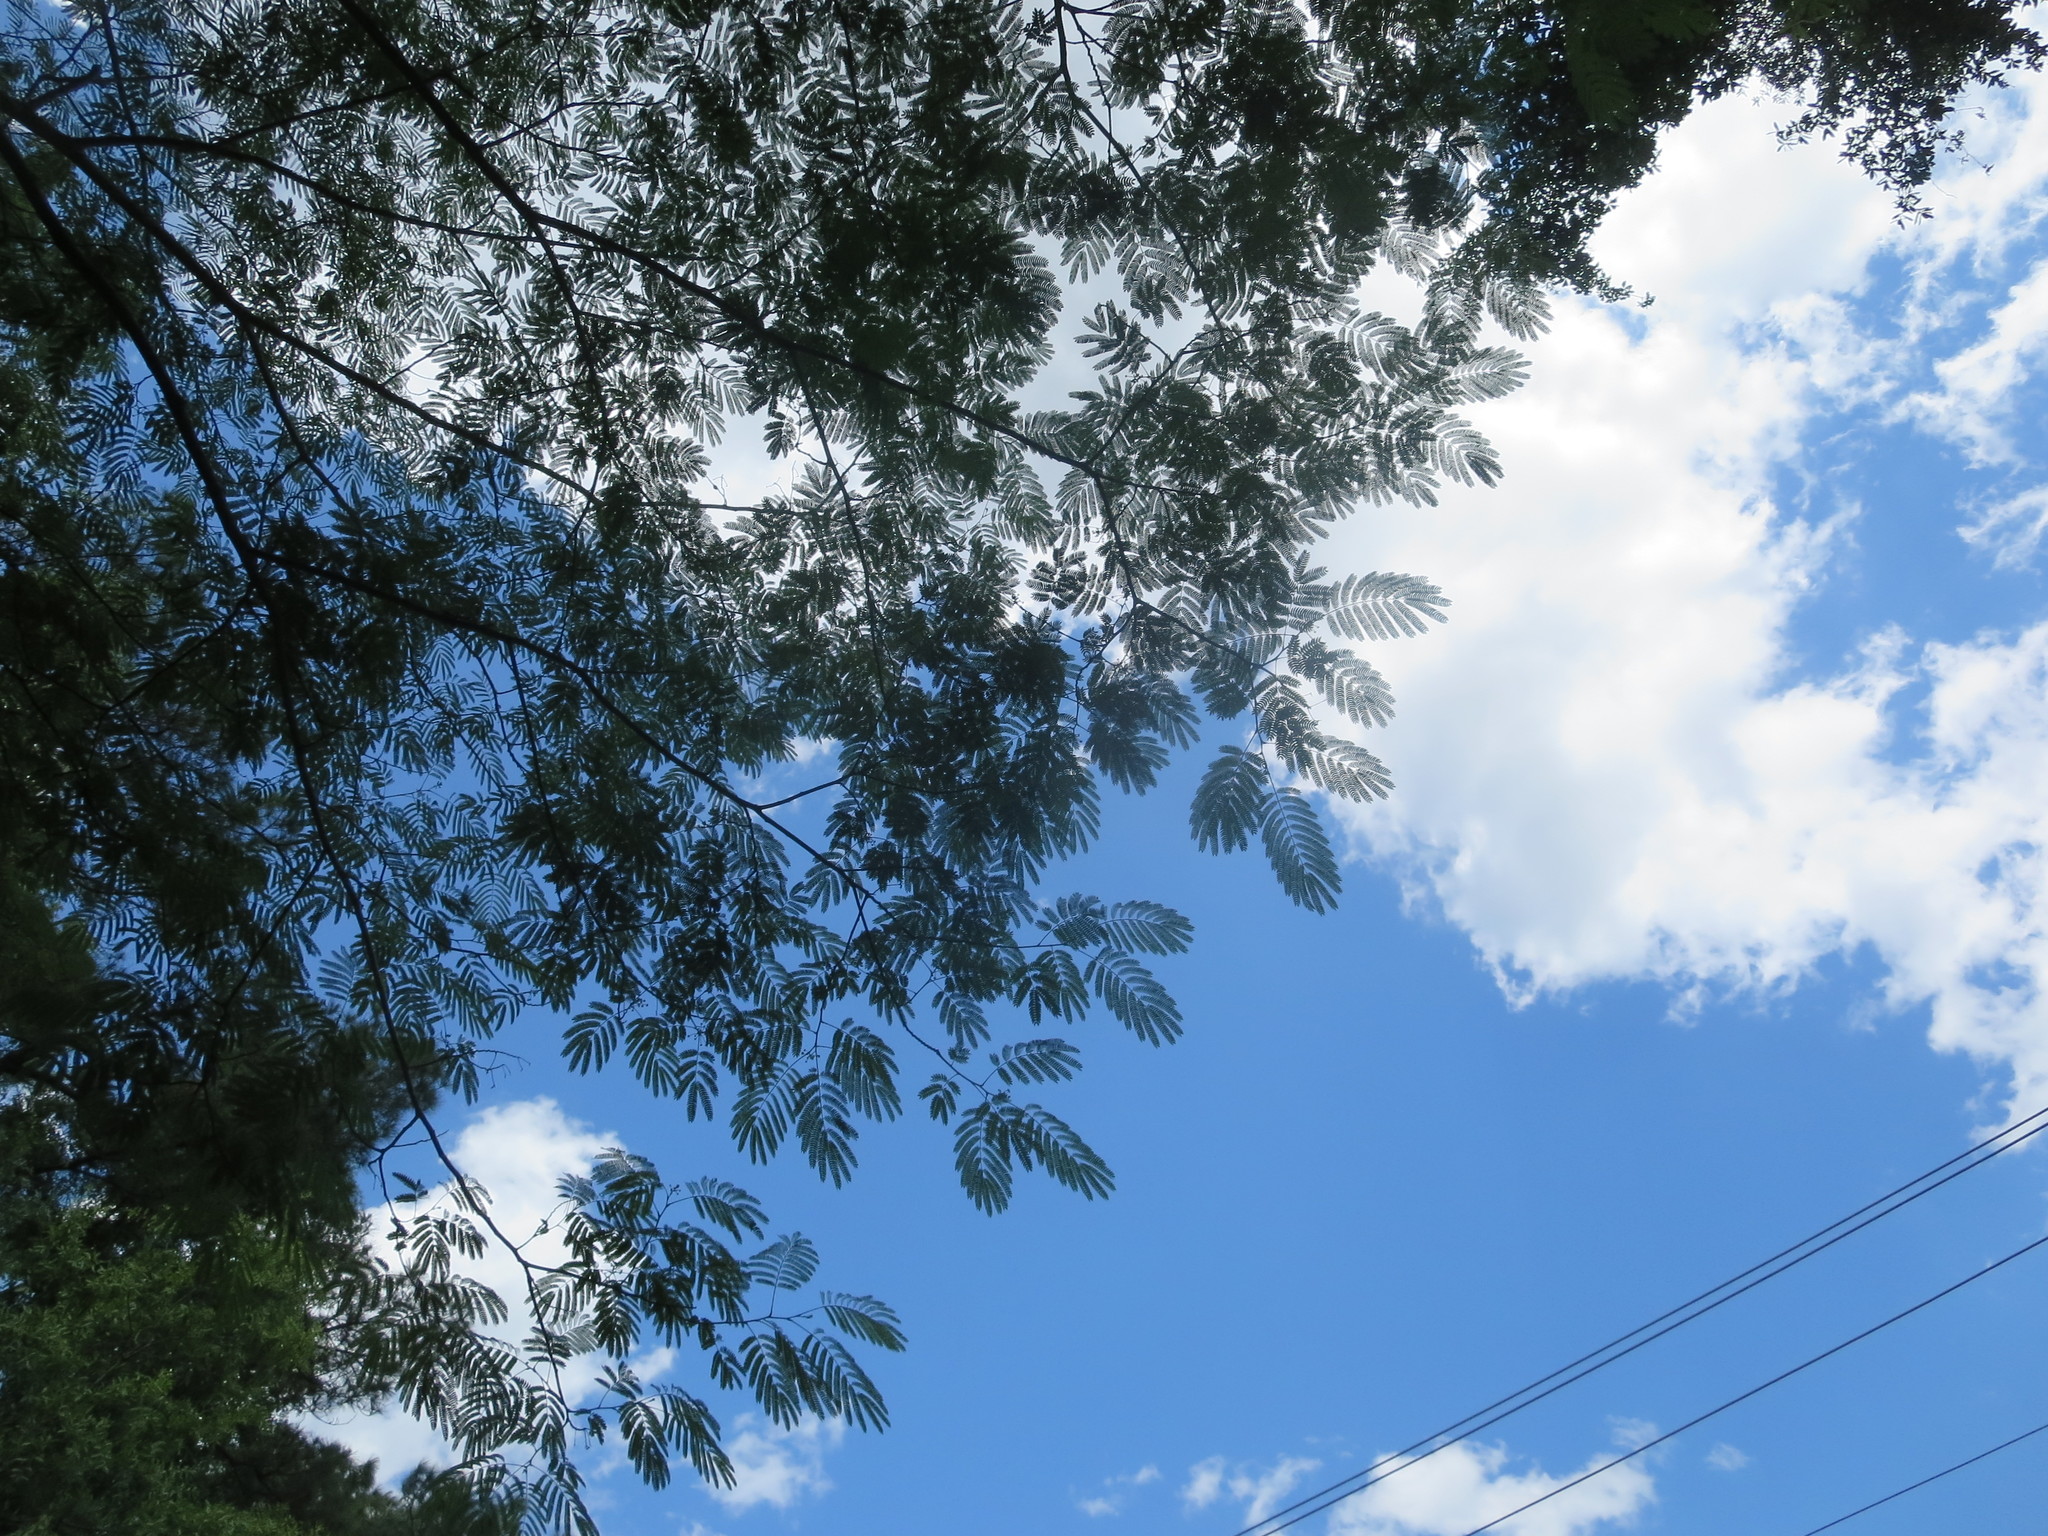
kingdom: Plantae
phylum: Tracheophyta
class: Magnoliopsida
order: Fabales
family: Fabaceae
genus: Albizia
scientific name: Albizia julibrissin
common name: Silktree
